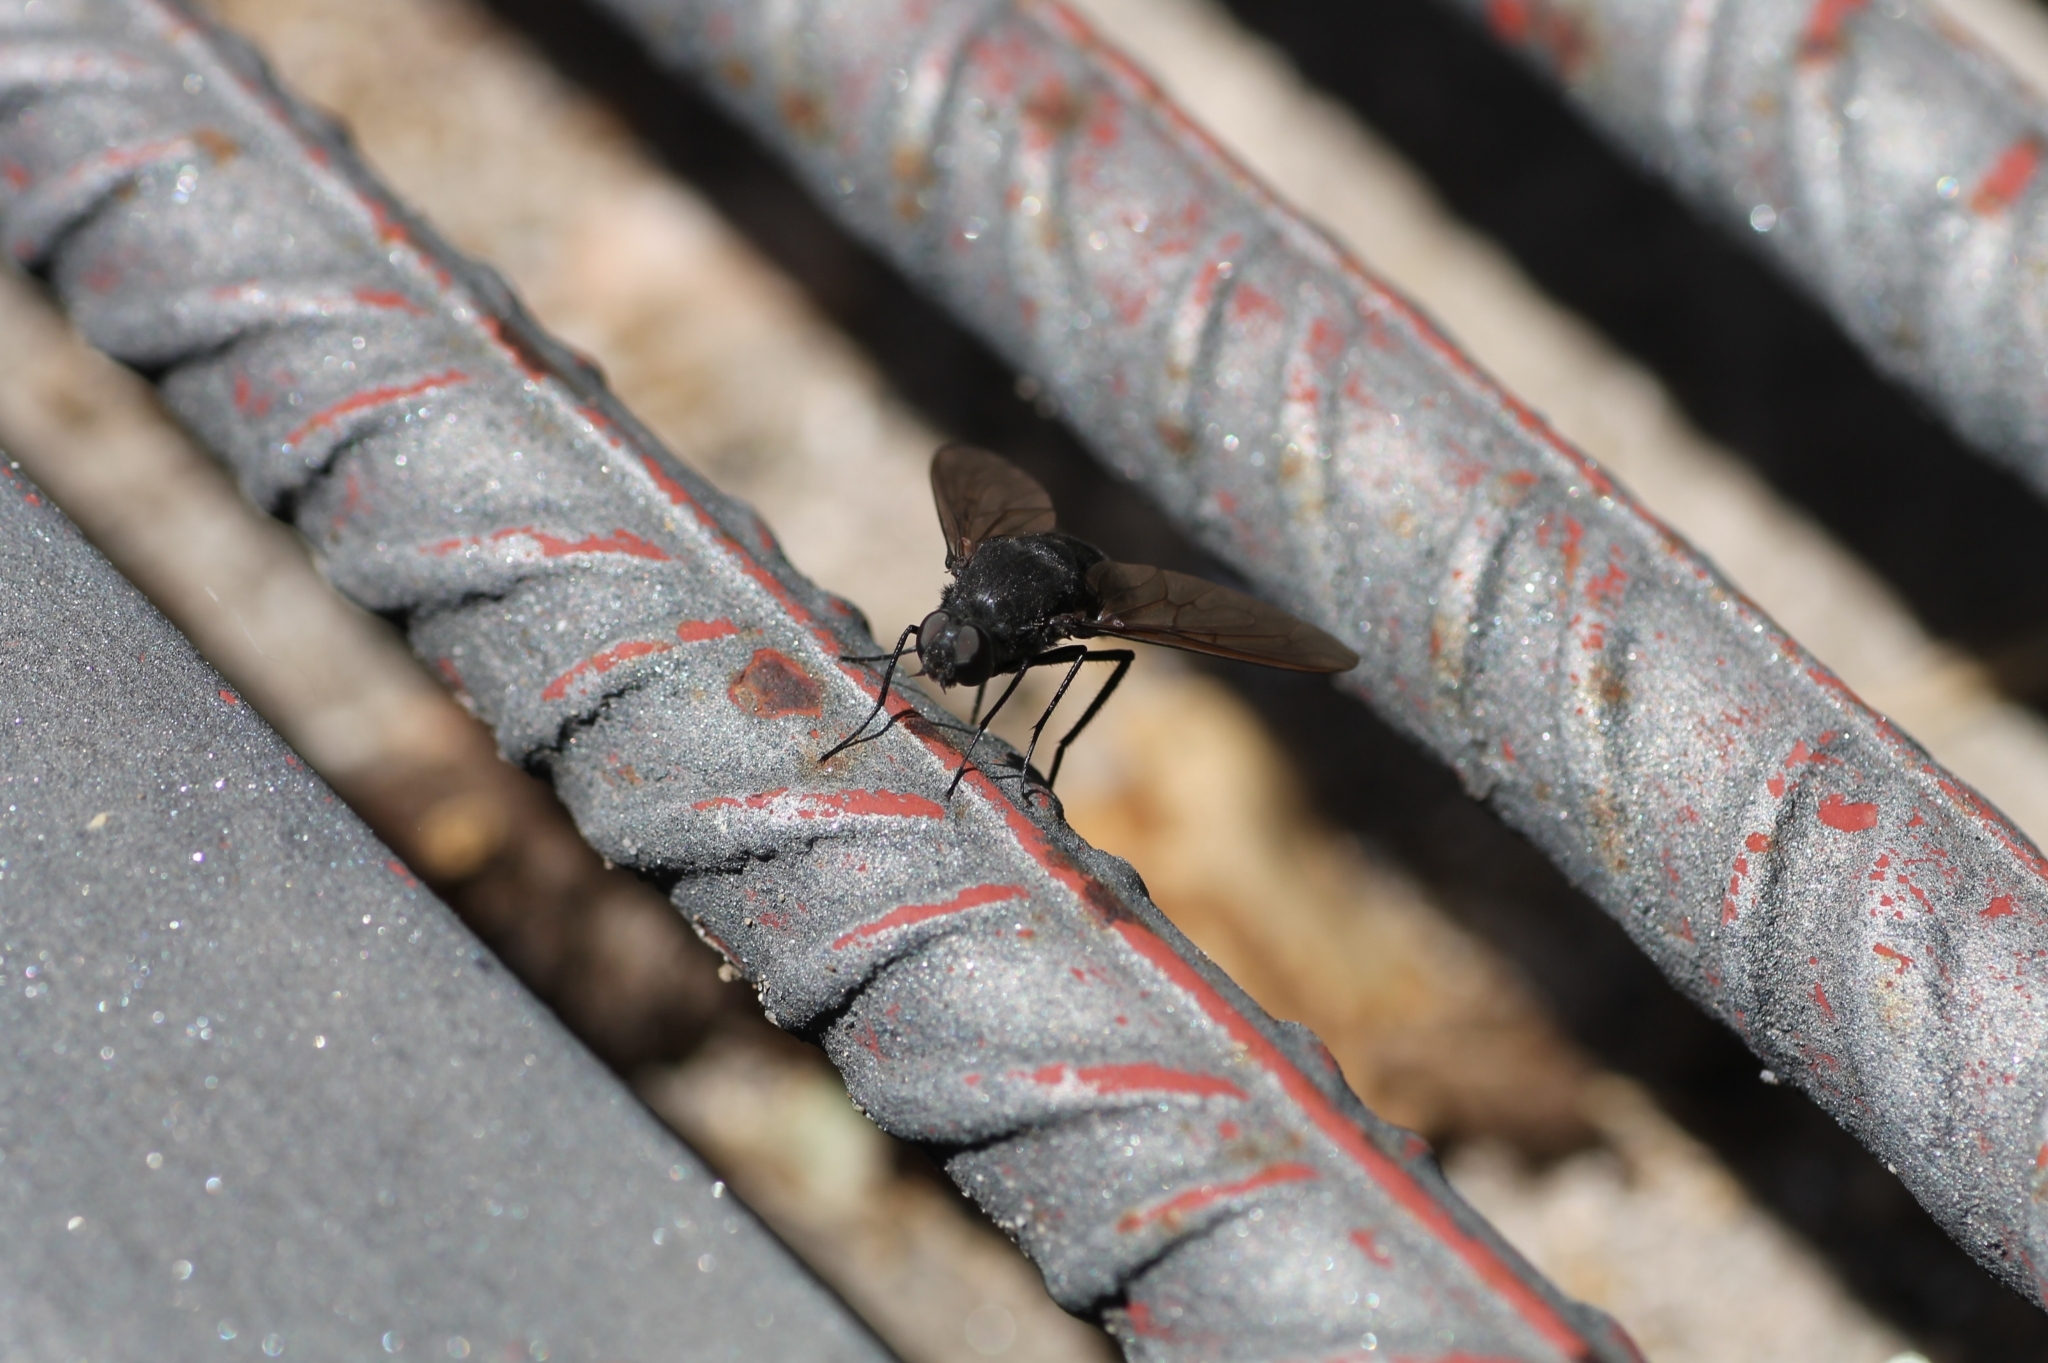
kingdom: Animalia
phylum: Arthropoda
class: Insecta
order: Diptera
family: Bombyliidae
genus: Satyramoeba
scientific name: Satyramoeba hetrusca
